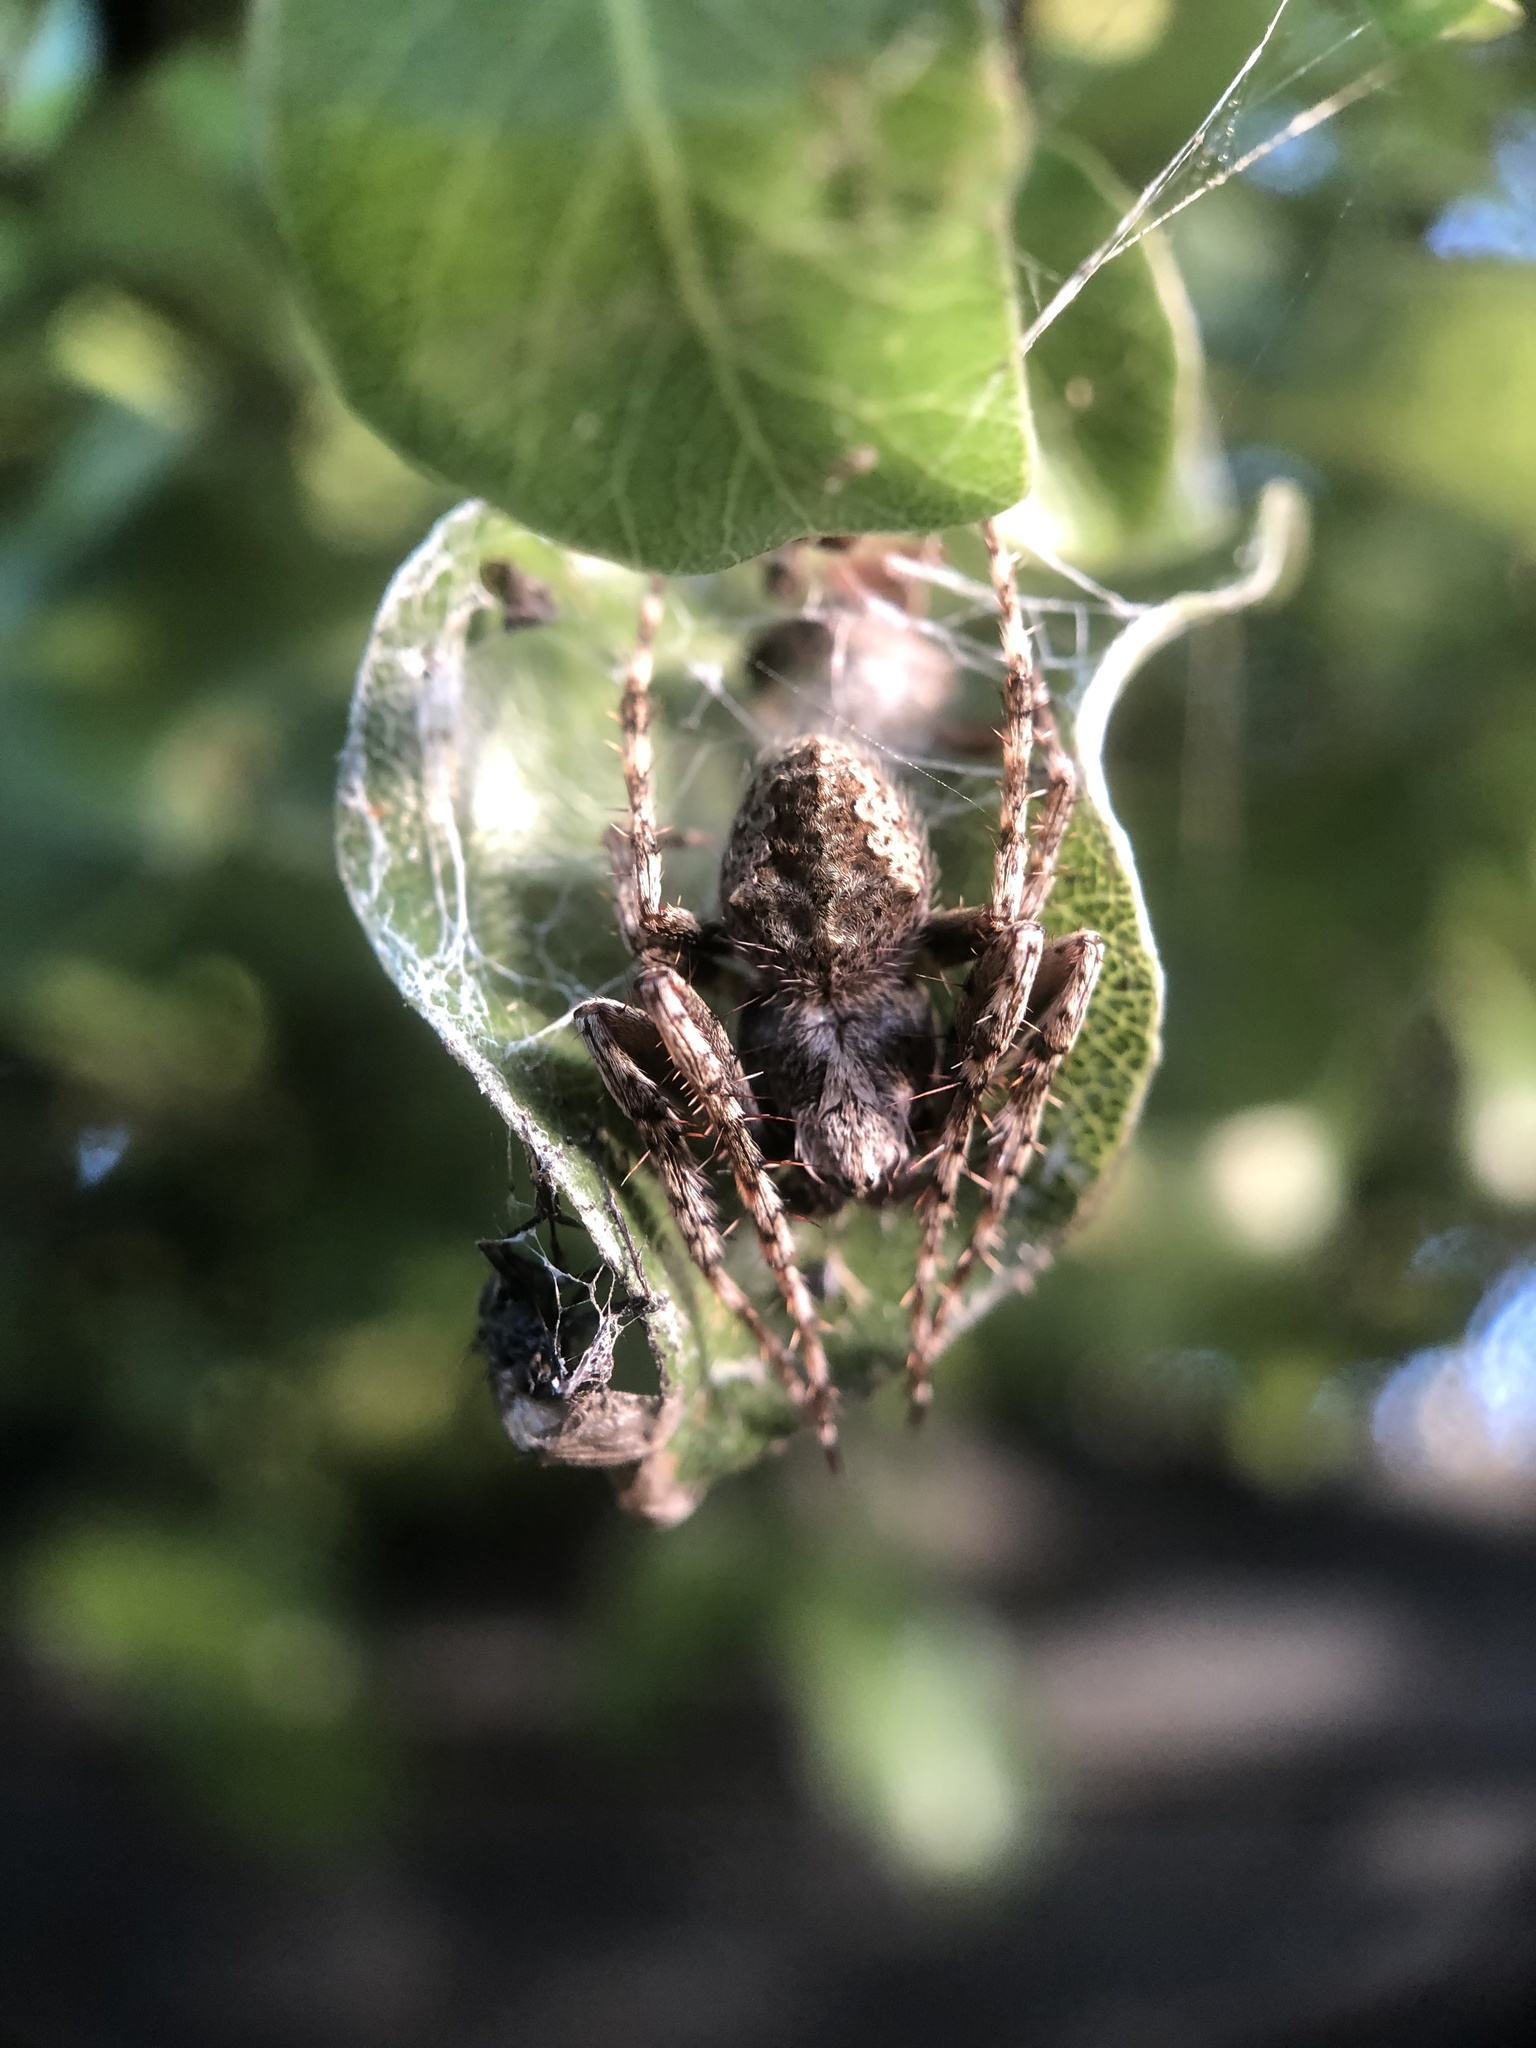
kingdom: Animalia
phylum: Arthropoda
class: Arachnida
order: Araneae
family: Araneidae
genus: Eriophora
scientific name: Eriophora pustulosa
